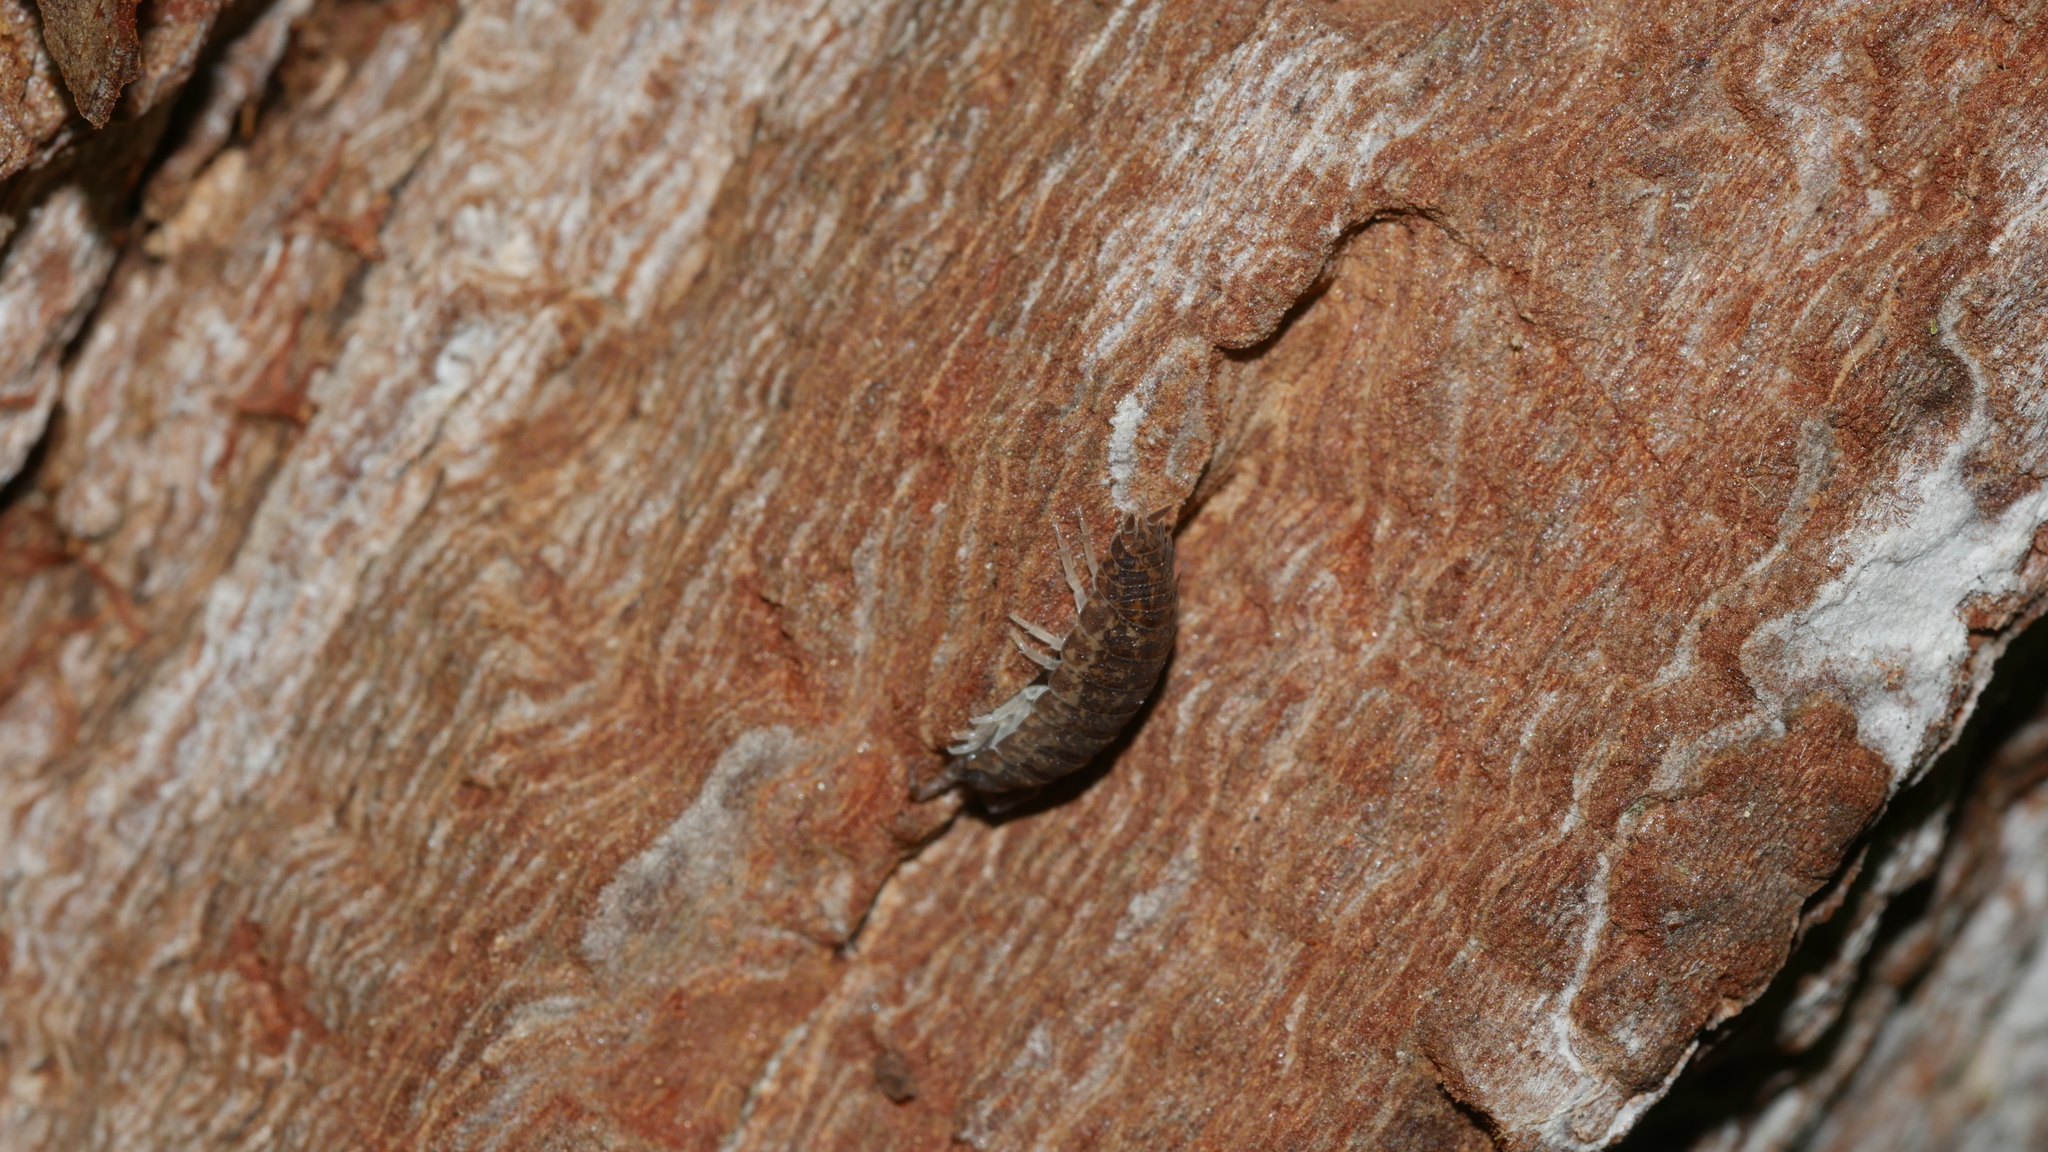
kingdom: Animalia
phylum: Arthropoda
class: Malacostraca
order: Isopoda
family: Porcellionidae
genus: Porcellio
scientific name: Porcellio scaber
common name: Common rough woodlouse
